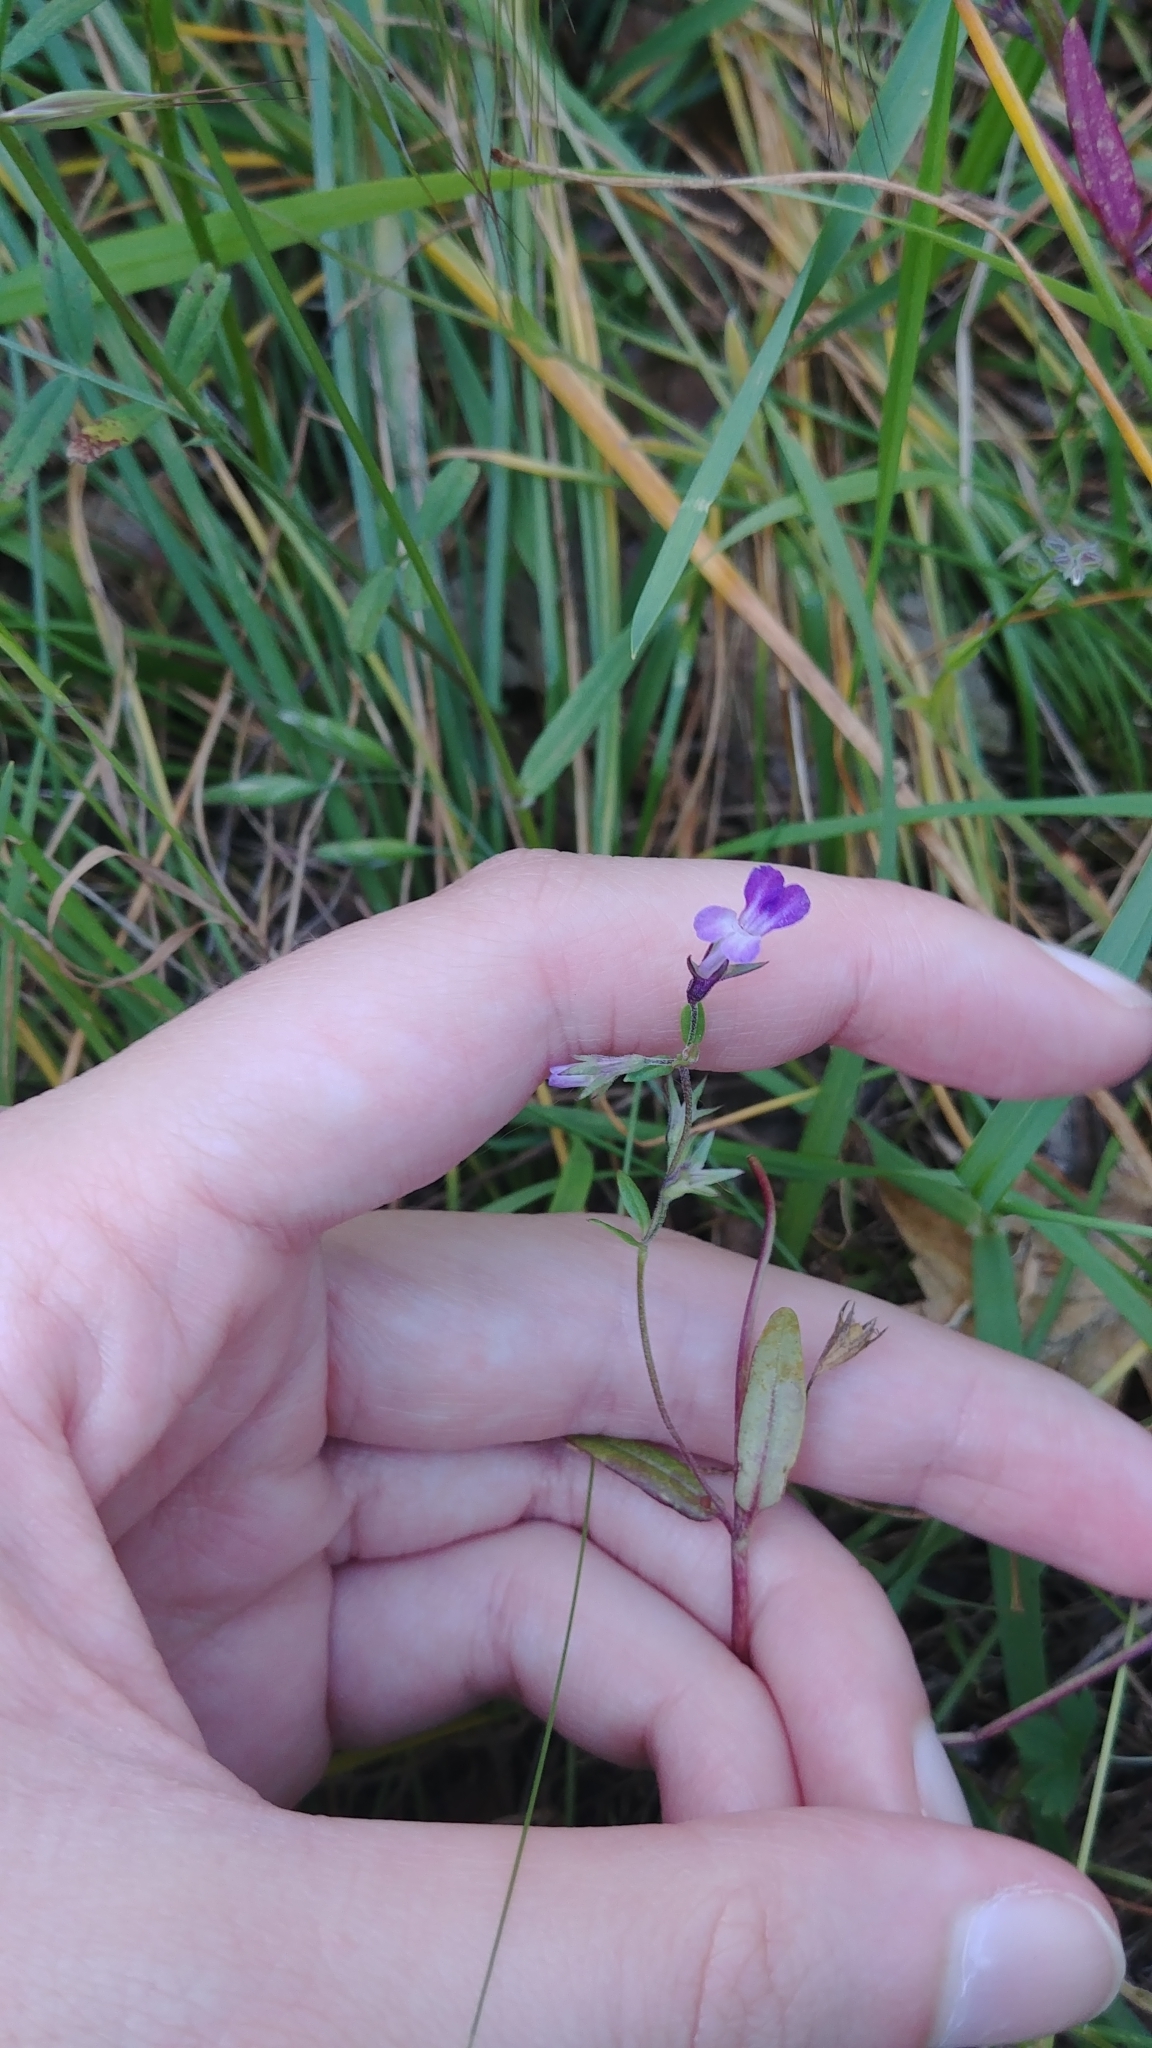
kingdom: Plantae
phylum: Tracheophyta
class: Magnoliopsida
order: Lamiales
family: Plantaginaceae
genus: Collinsia
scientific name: Collinsia grandiflora
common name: Large-flower blue-eyed-mary
